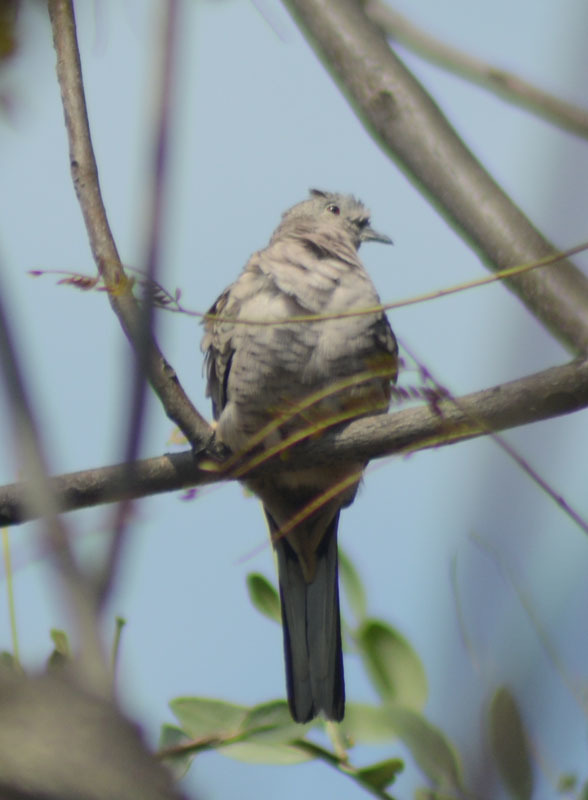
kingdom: Animalia
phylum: Chordata
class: Aves
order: Columbiformes
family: Columbidae
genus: Columbina
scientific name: Columbina inca
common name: Inca dove
